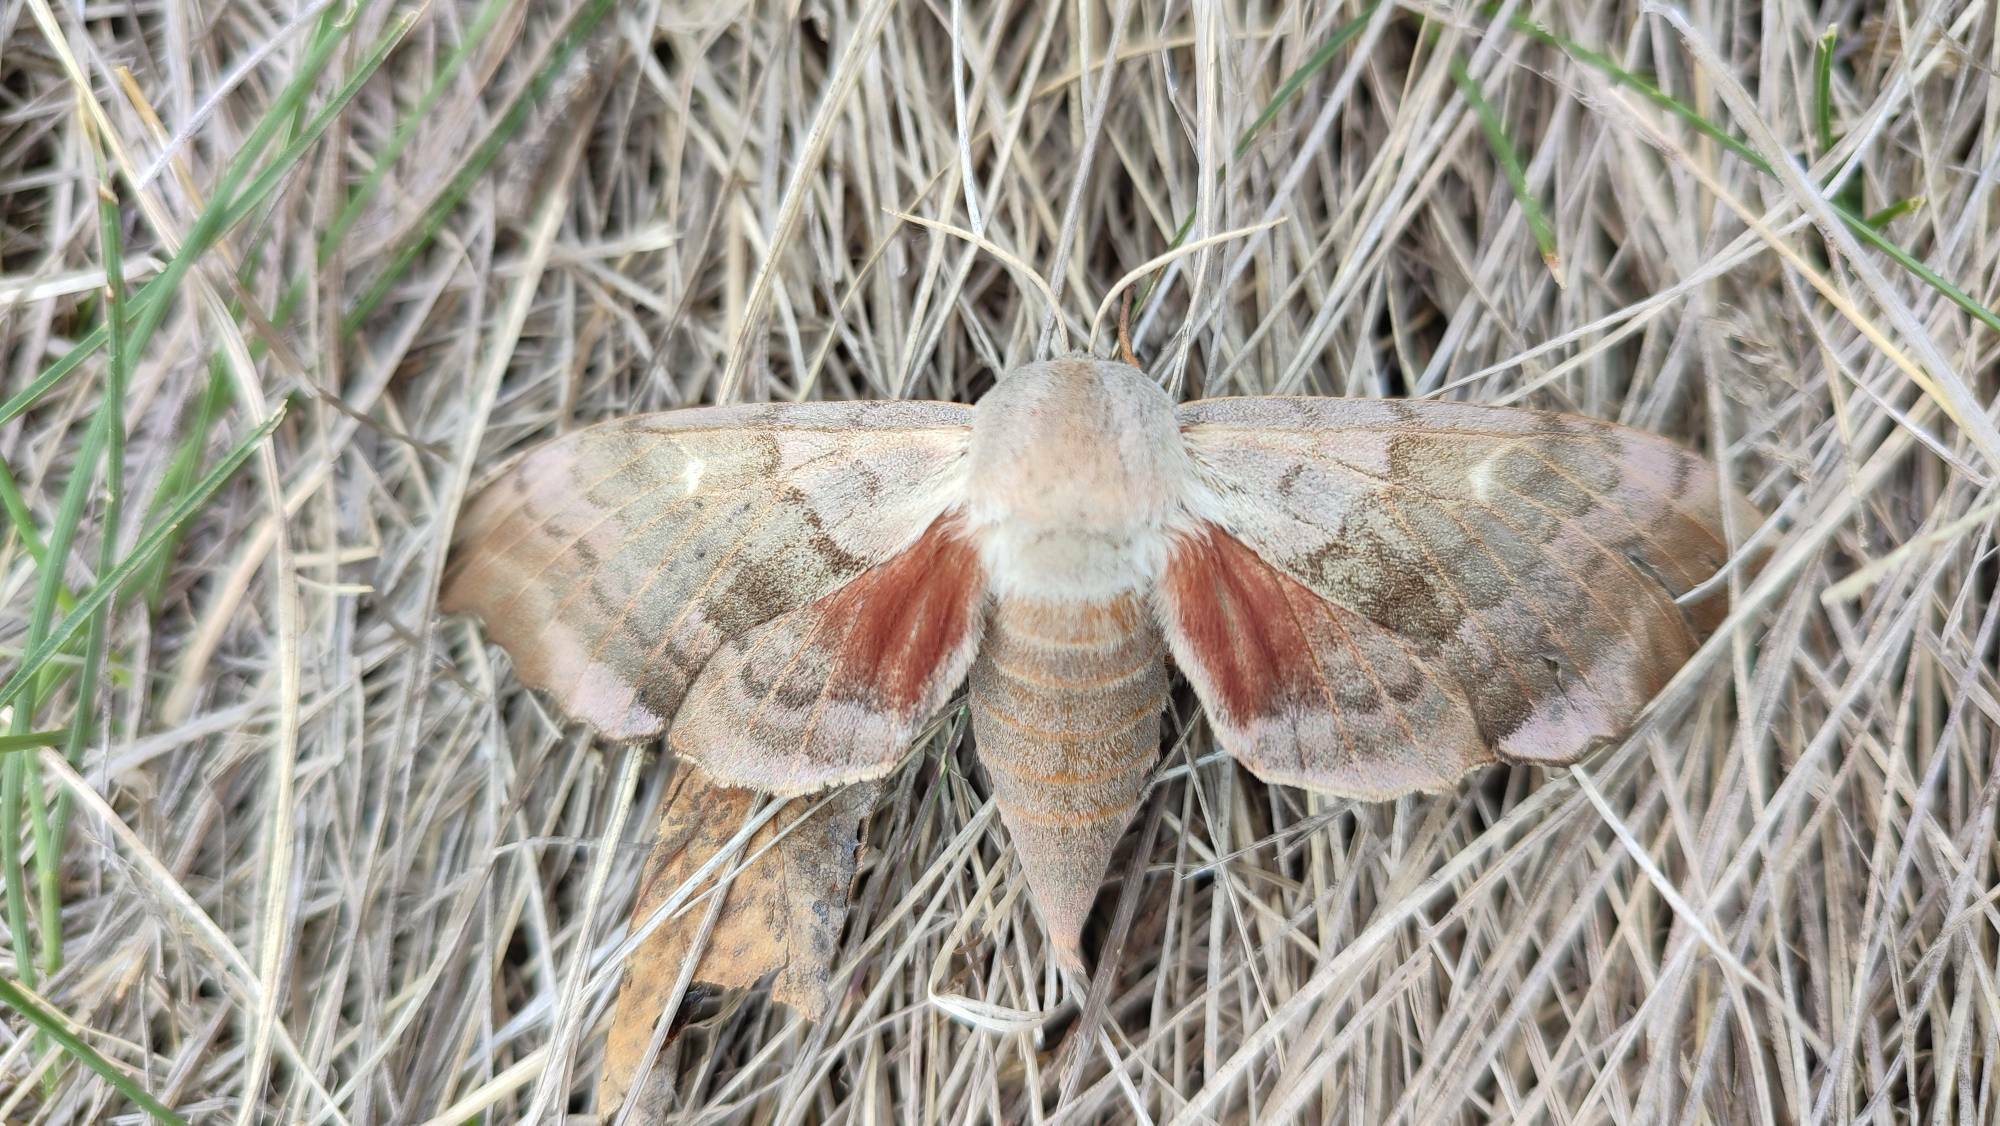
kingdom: Animalia
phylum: Arthropoda
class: Insecta
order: Lepidoptera
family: Sphingidae
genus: Laothoe
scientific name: Laothoe populi
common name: Poplar hawk-moth
